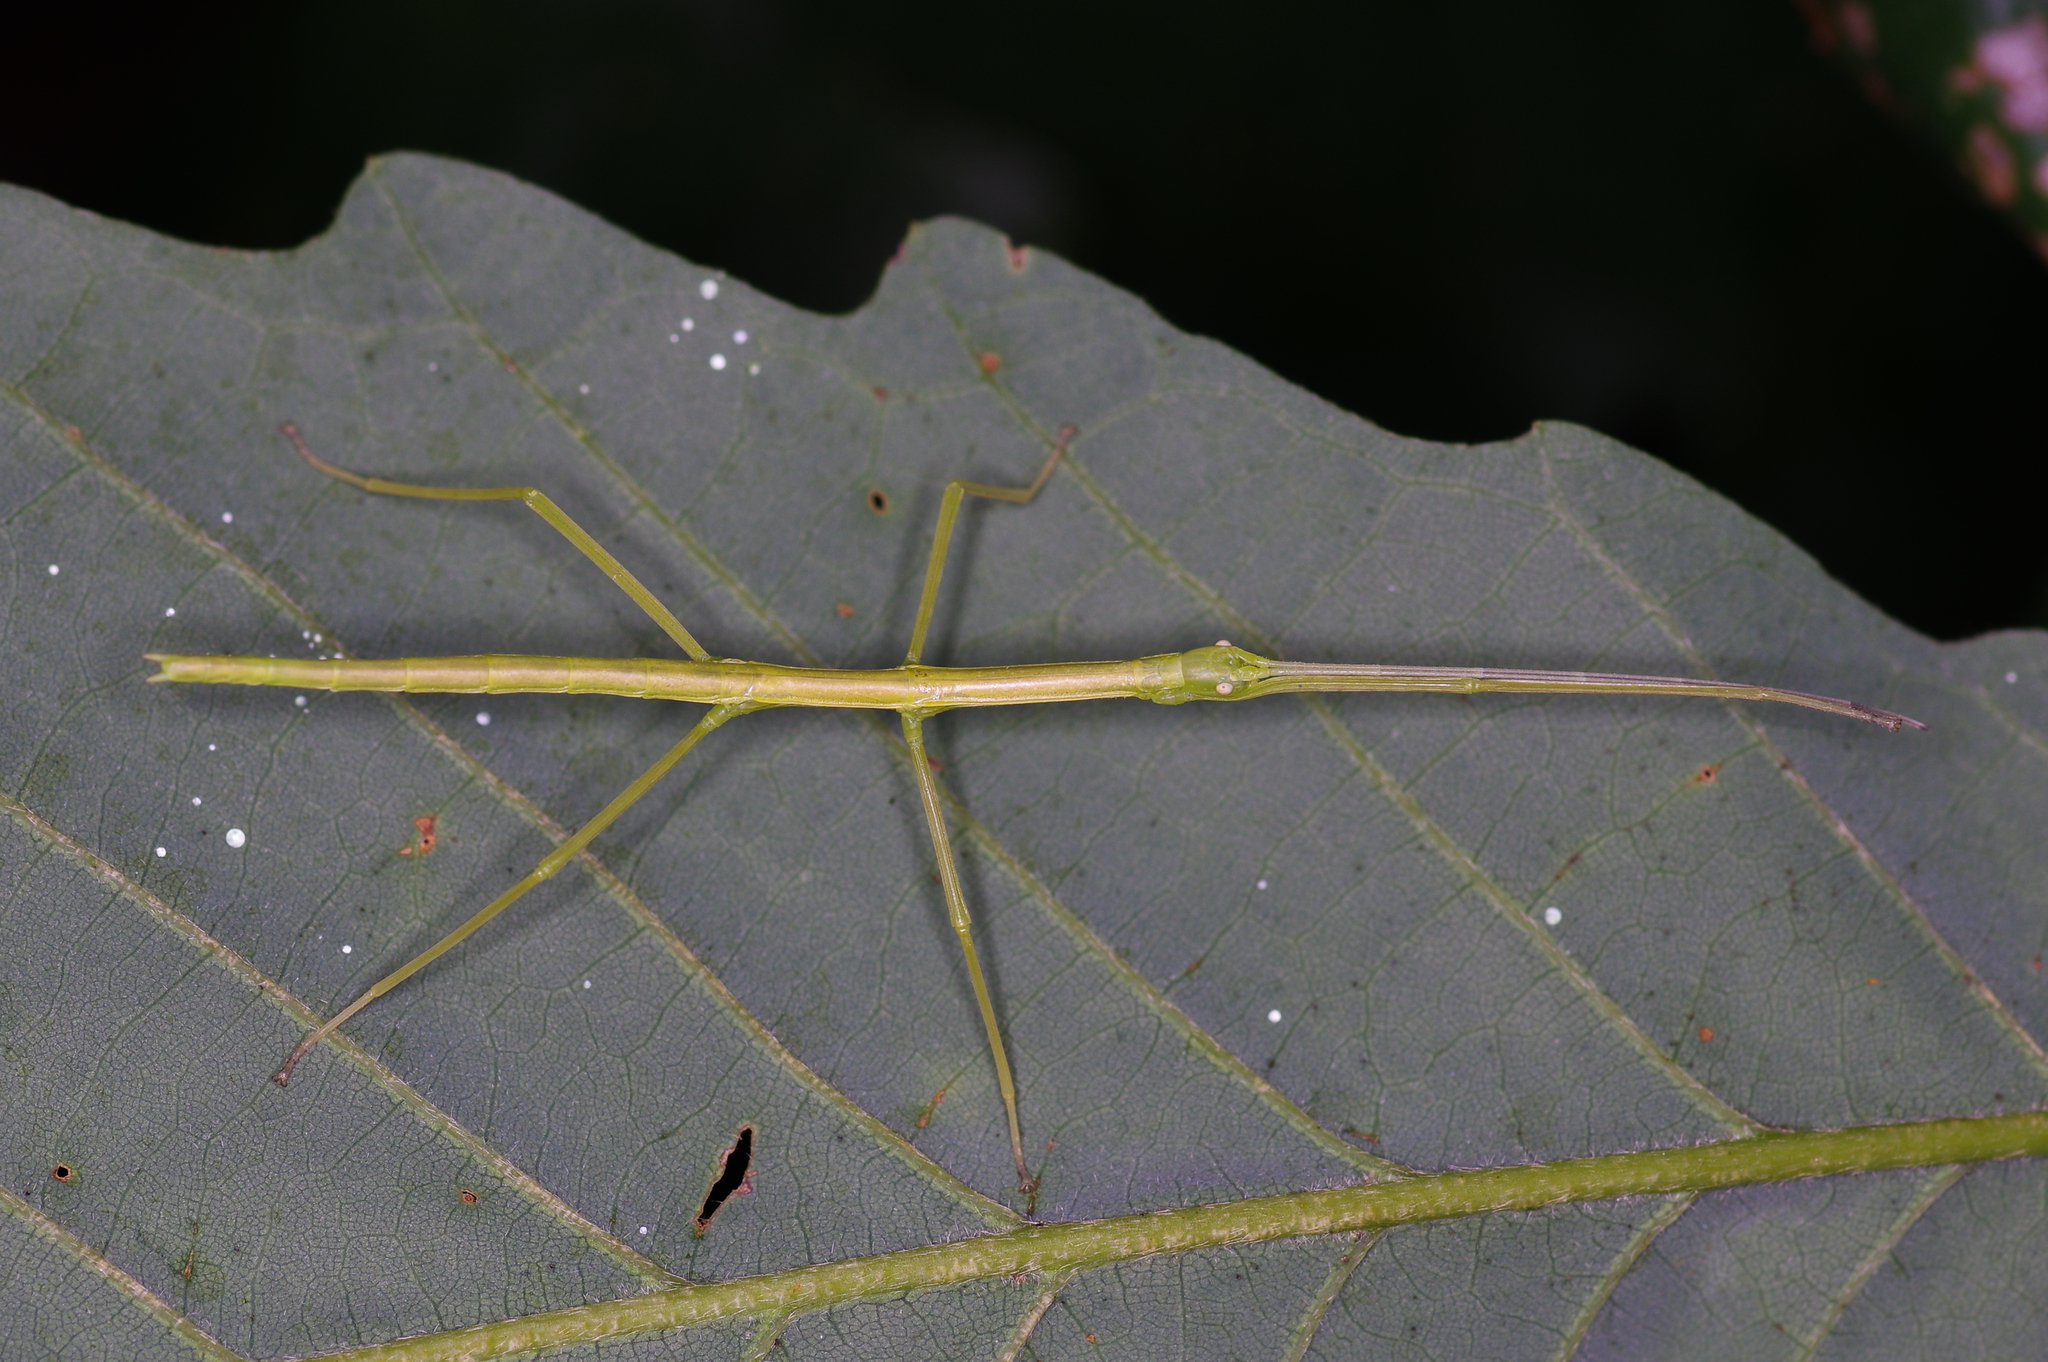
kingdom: Animalia
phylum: Arthropoda
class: Insecta
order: Phasmida
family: Diapheromeridae
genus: Diapheromera
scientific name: Diapheromera femorata
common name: Common american walkingstick
